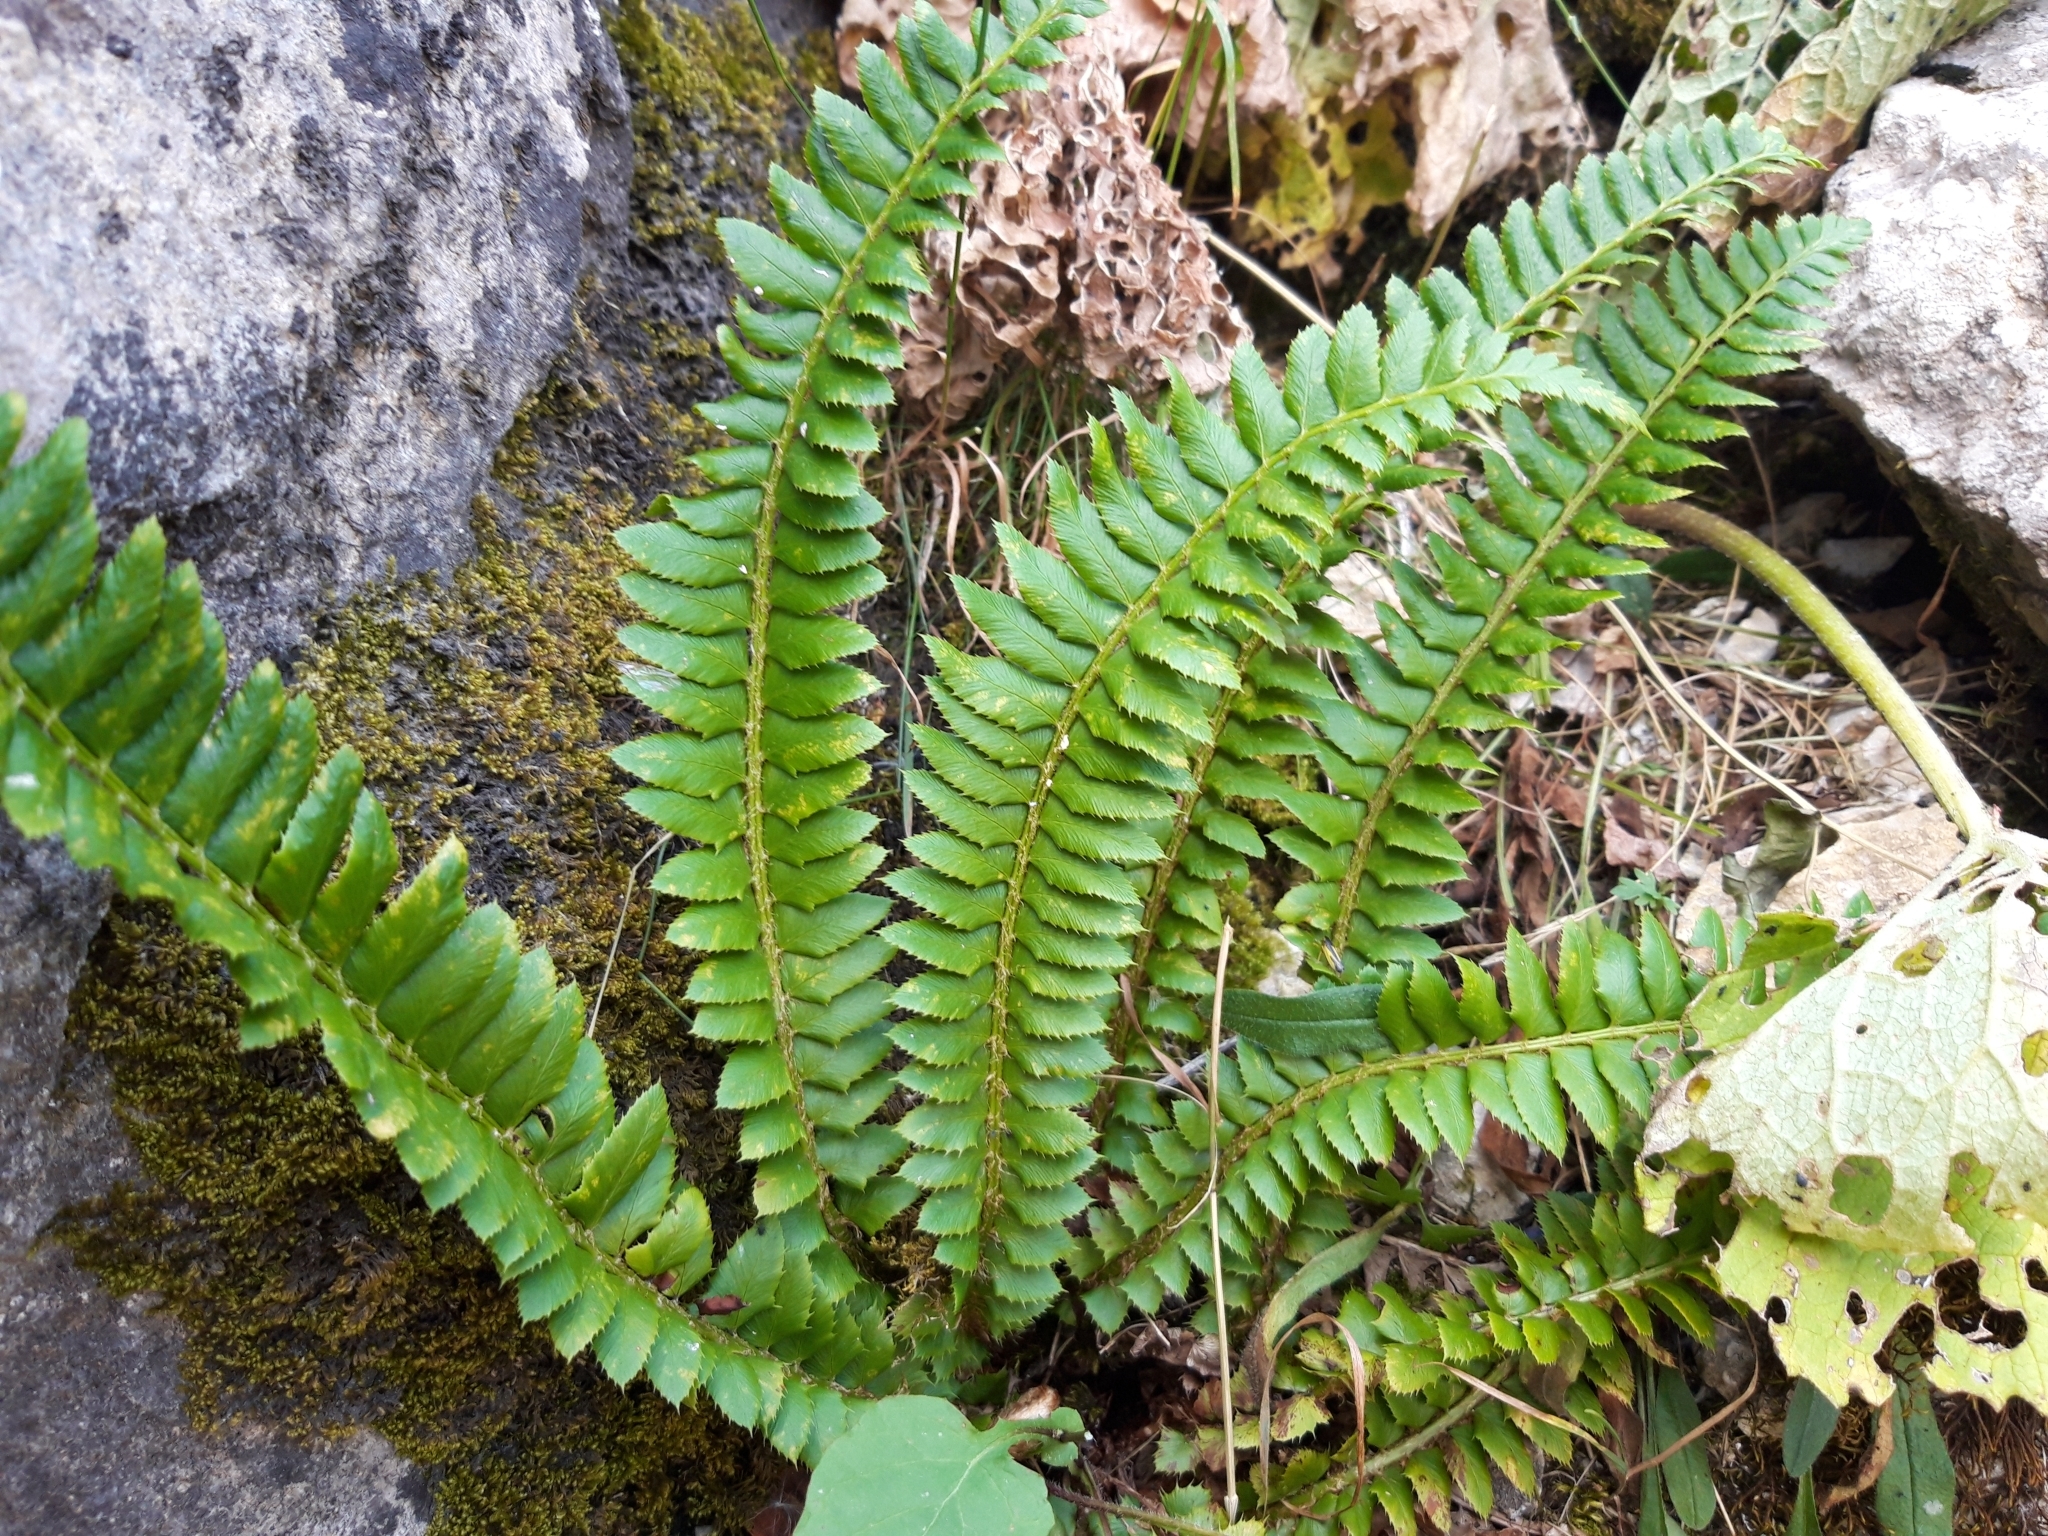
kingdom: Plantae
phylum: Tracheophyta
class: Polypodiopsida
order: Polypodiales
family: Dryopteridaceae
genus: Polystichum
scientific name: Polystichum lonchitis
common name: Holly fern
